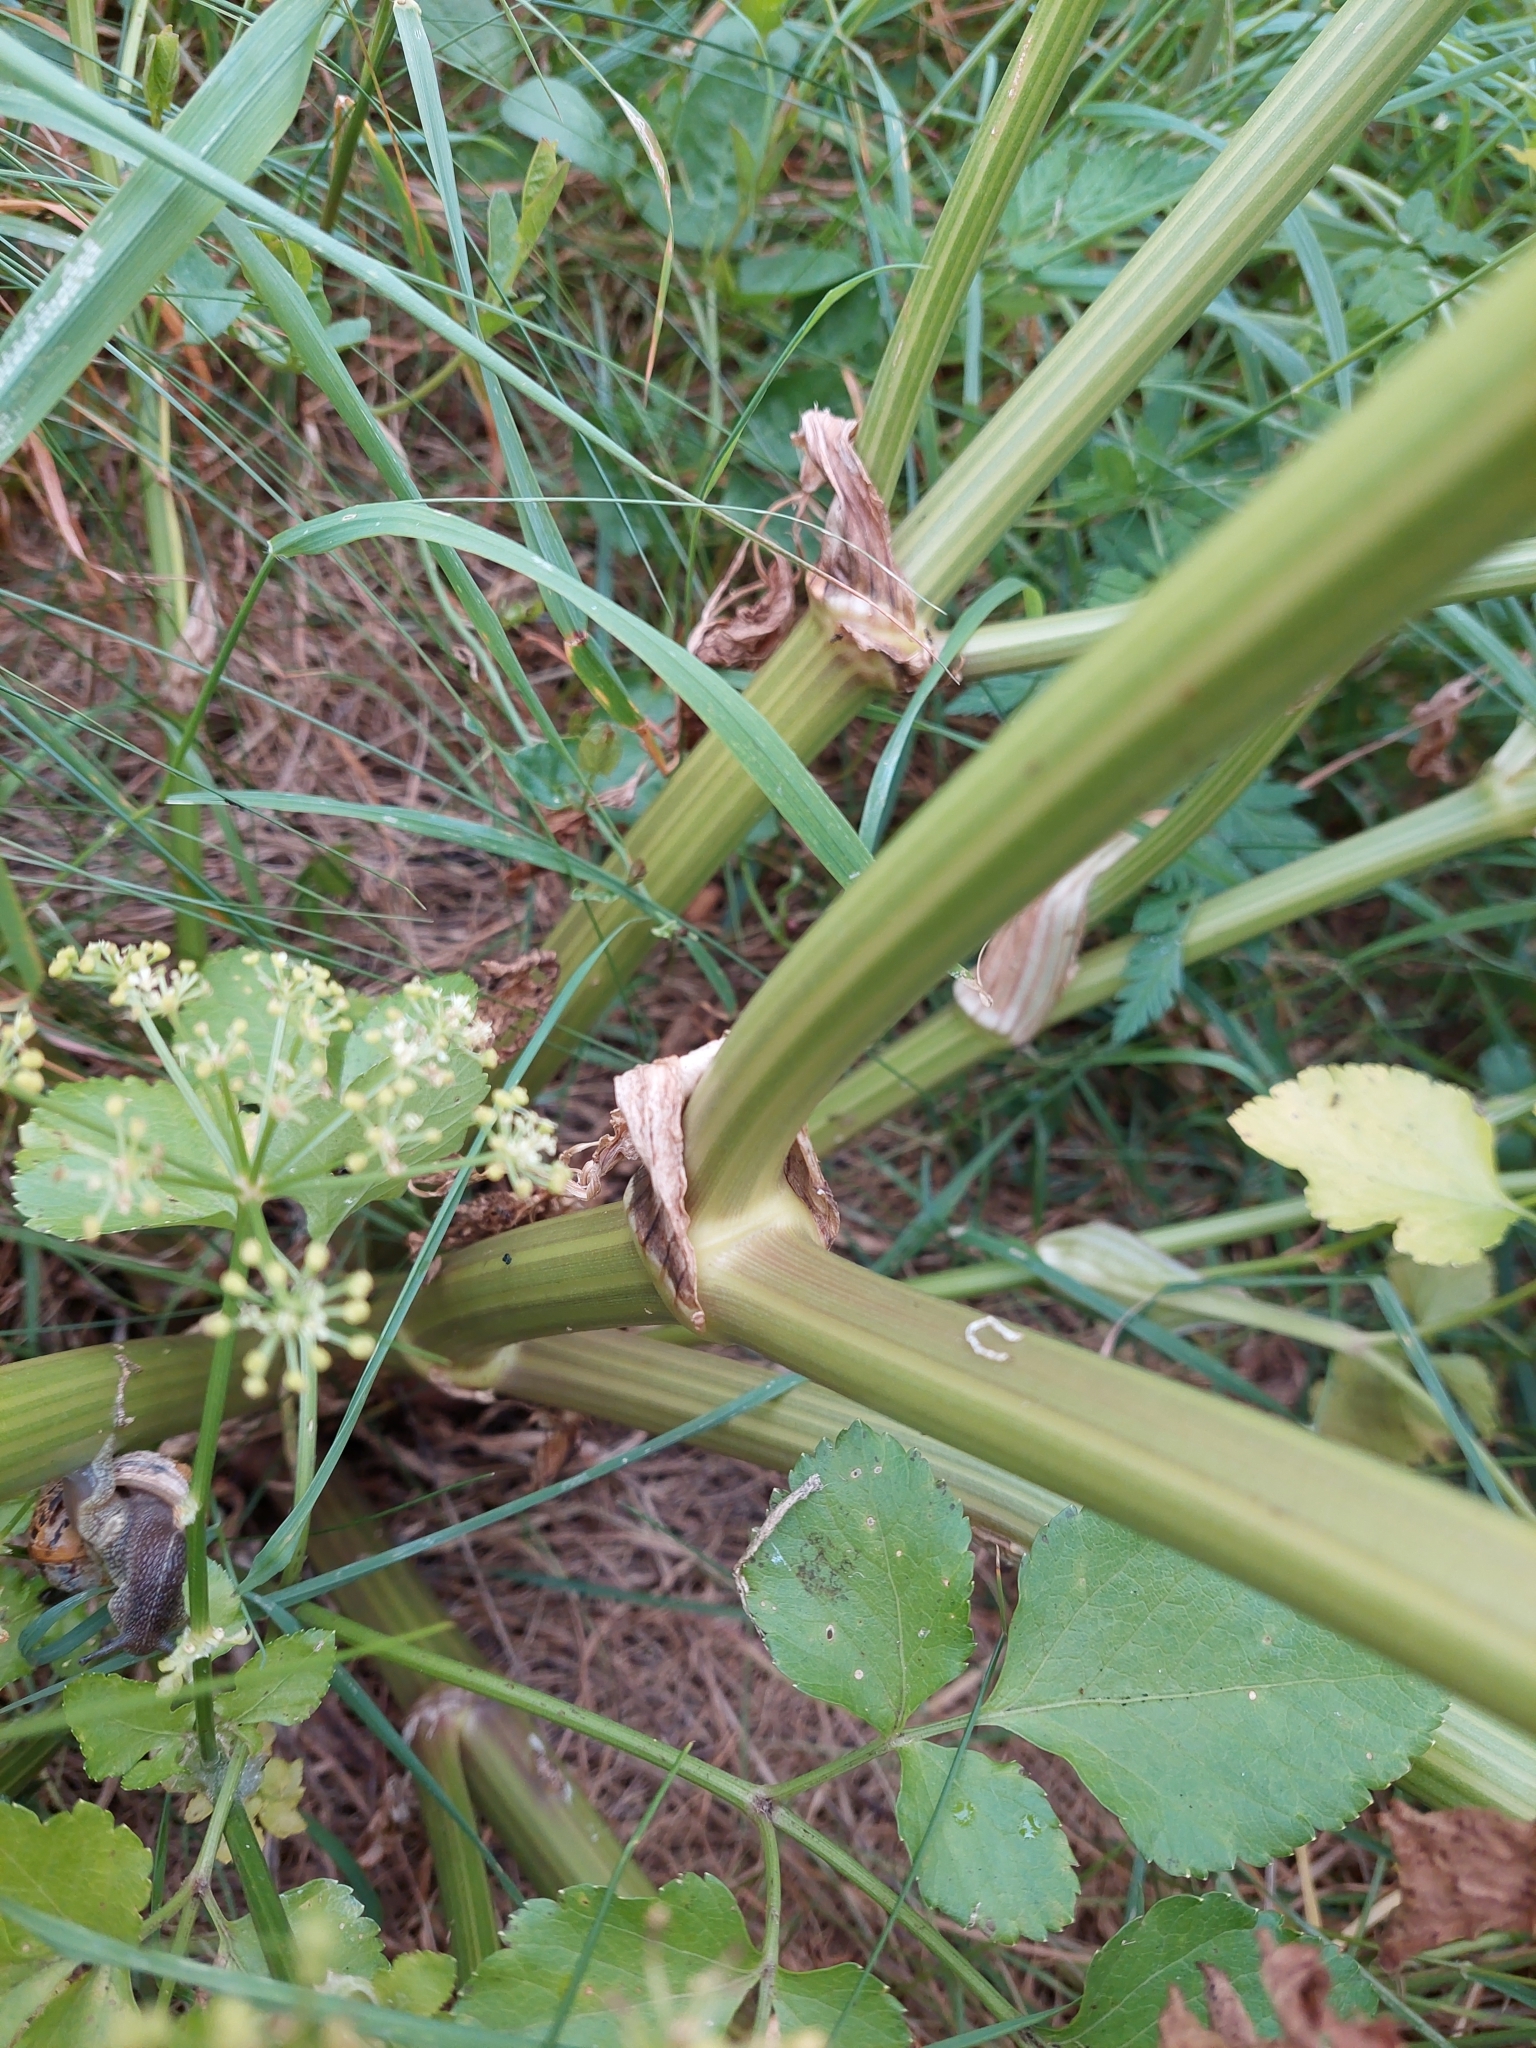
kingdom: Plantae
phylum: Tracheophyta
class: Magnoliopsida
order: Apiales
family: Apiaceae
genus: Smyrnium
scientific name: Smyrnium olusatrum
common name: Alexanders
